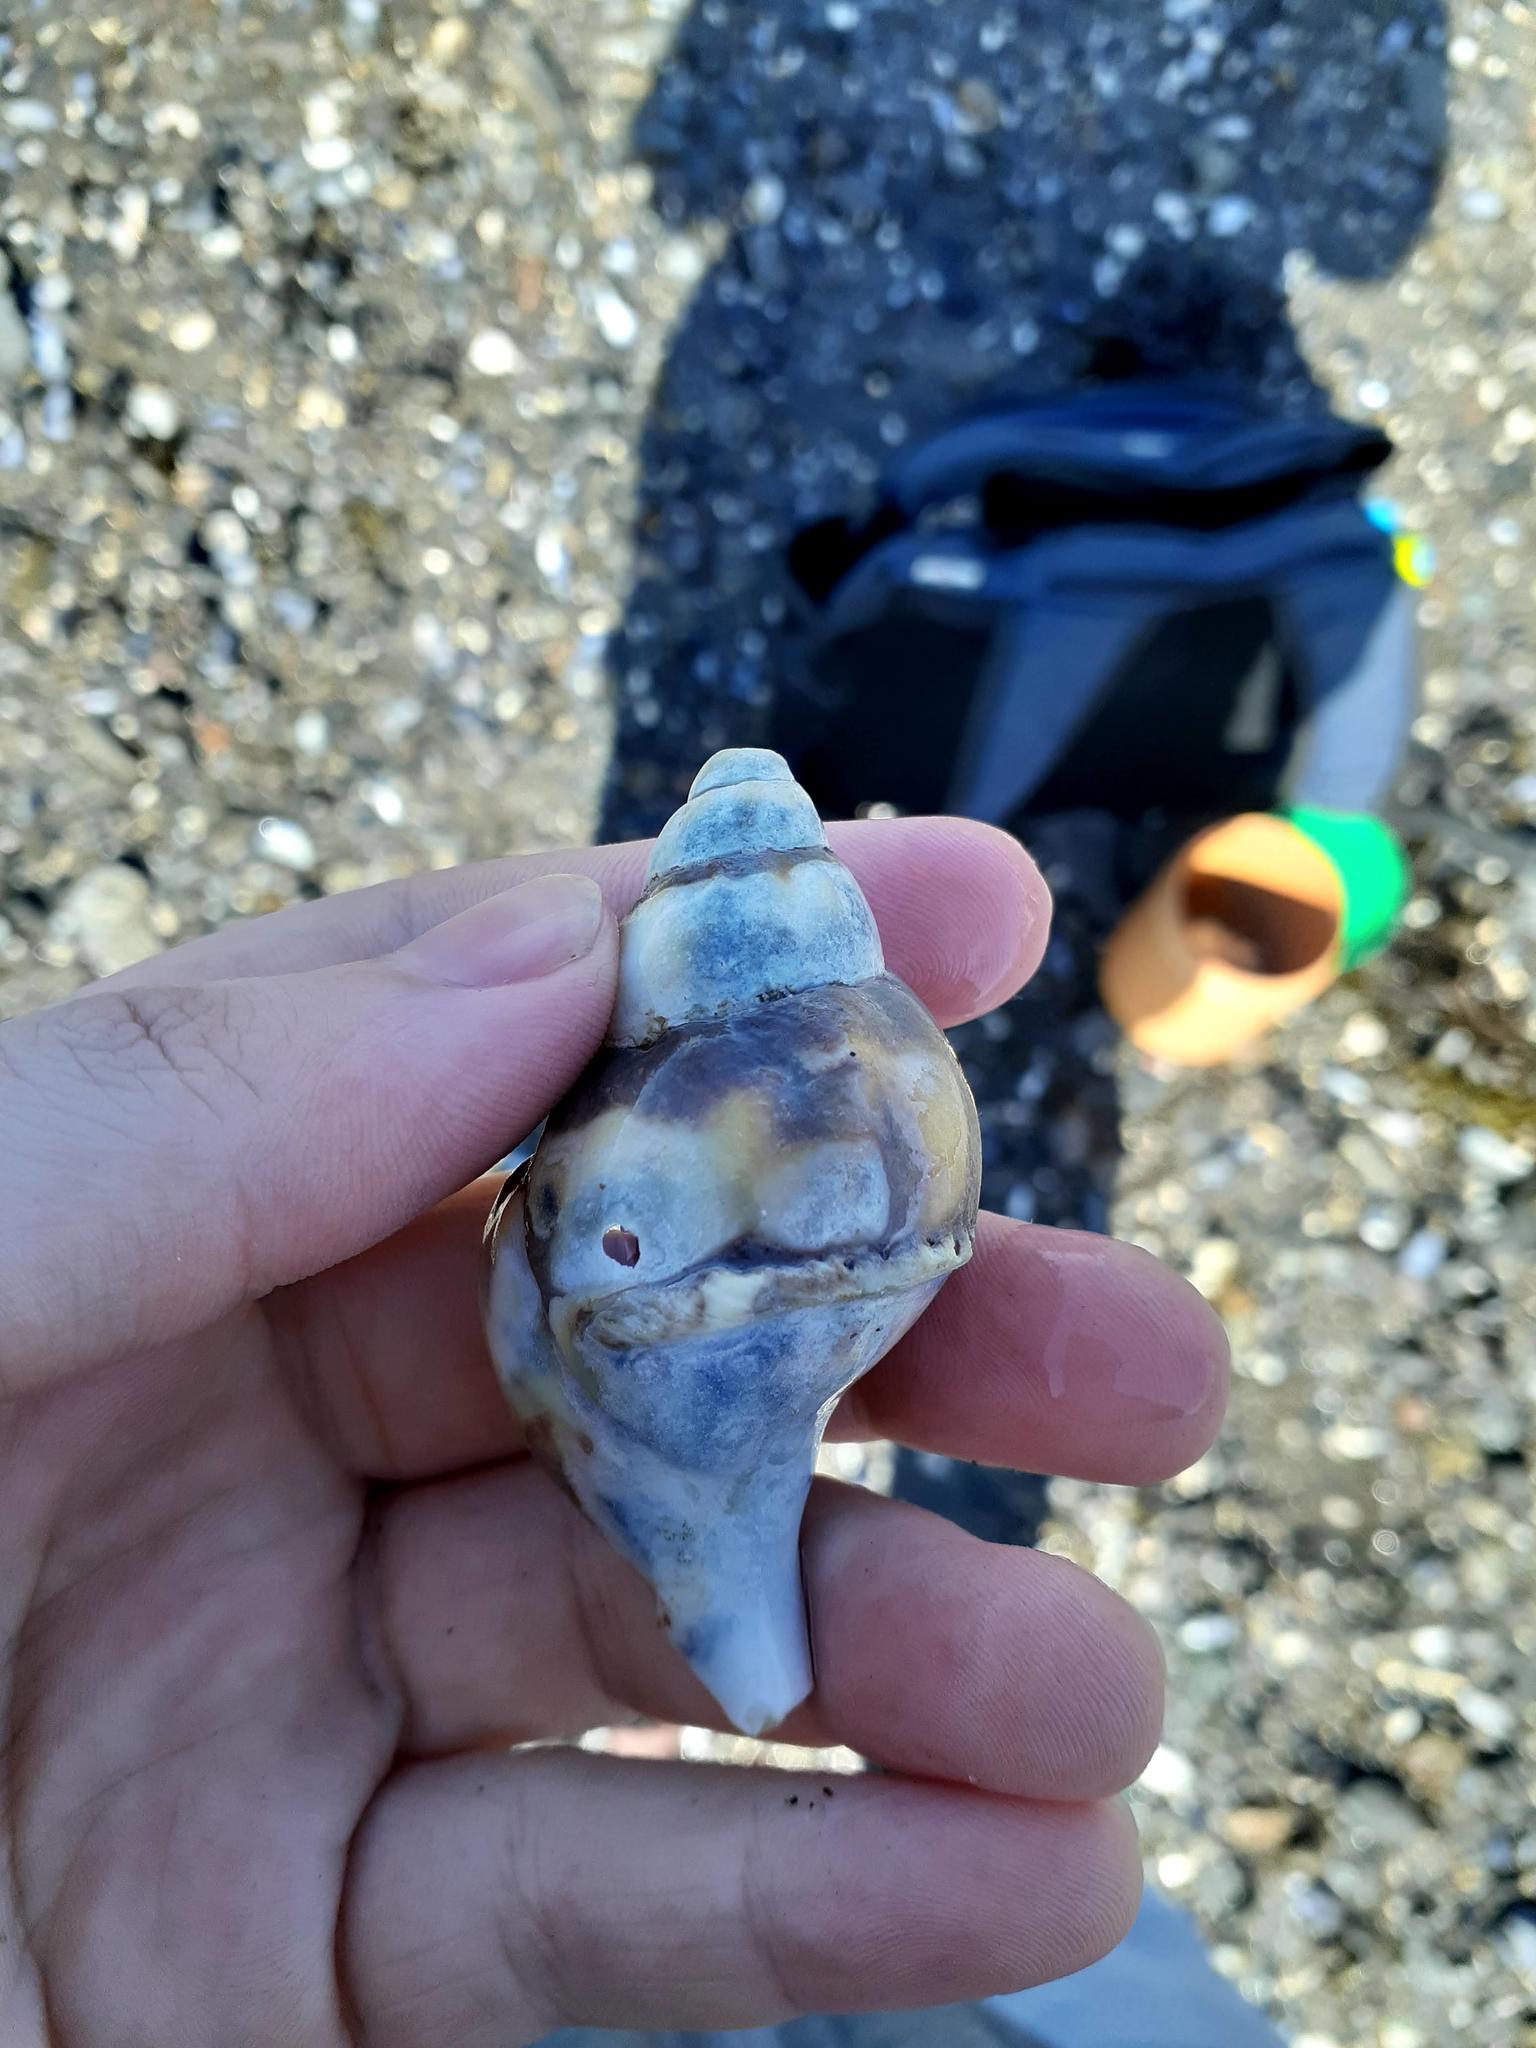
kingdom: Animalia
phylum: Mollusca
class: Gastropoda
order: Neogastropoda
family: Buccinidae
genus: Buccinum
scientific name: Buccinum undatum
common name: Common whelk
